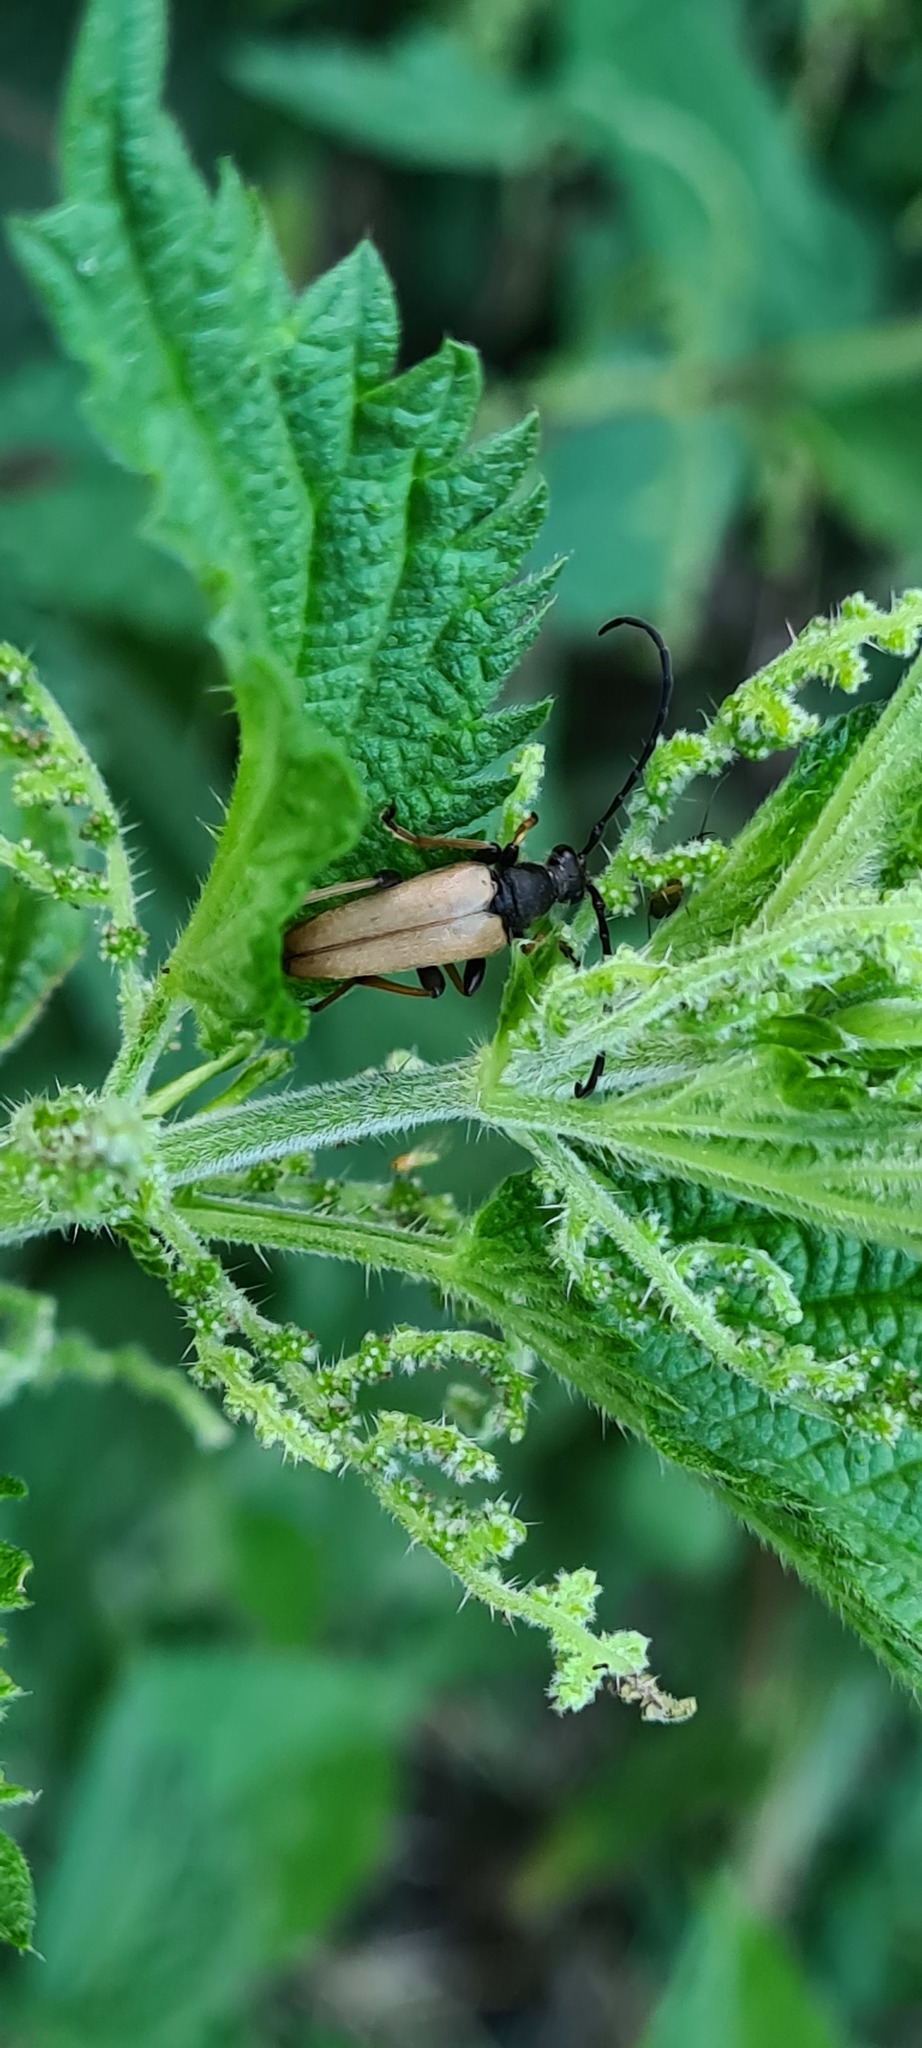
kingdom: Animalia
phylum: Arthropoda
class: Insecta
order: Coleoptera
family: Cerambycidae
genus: Stictoleptura
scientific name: Stictoleptura rubra
